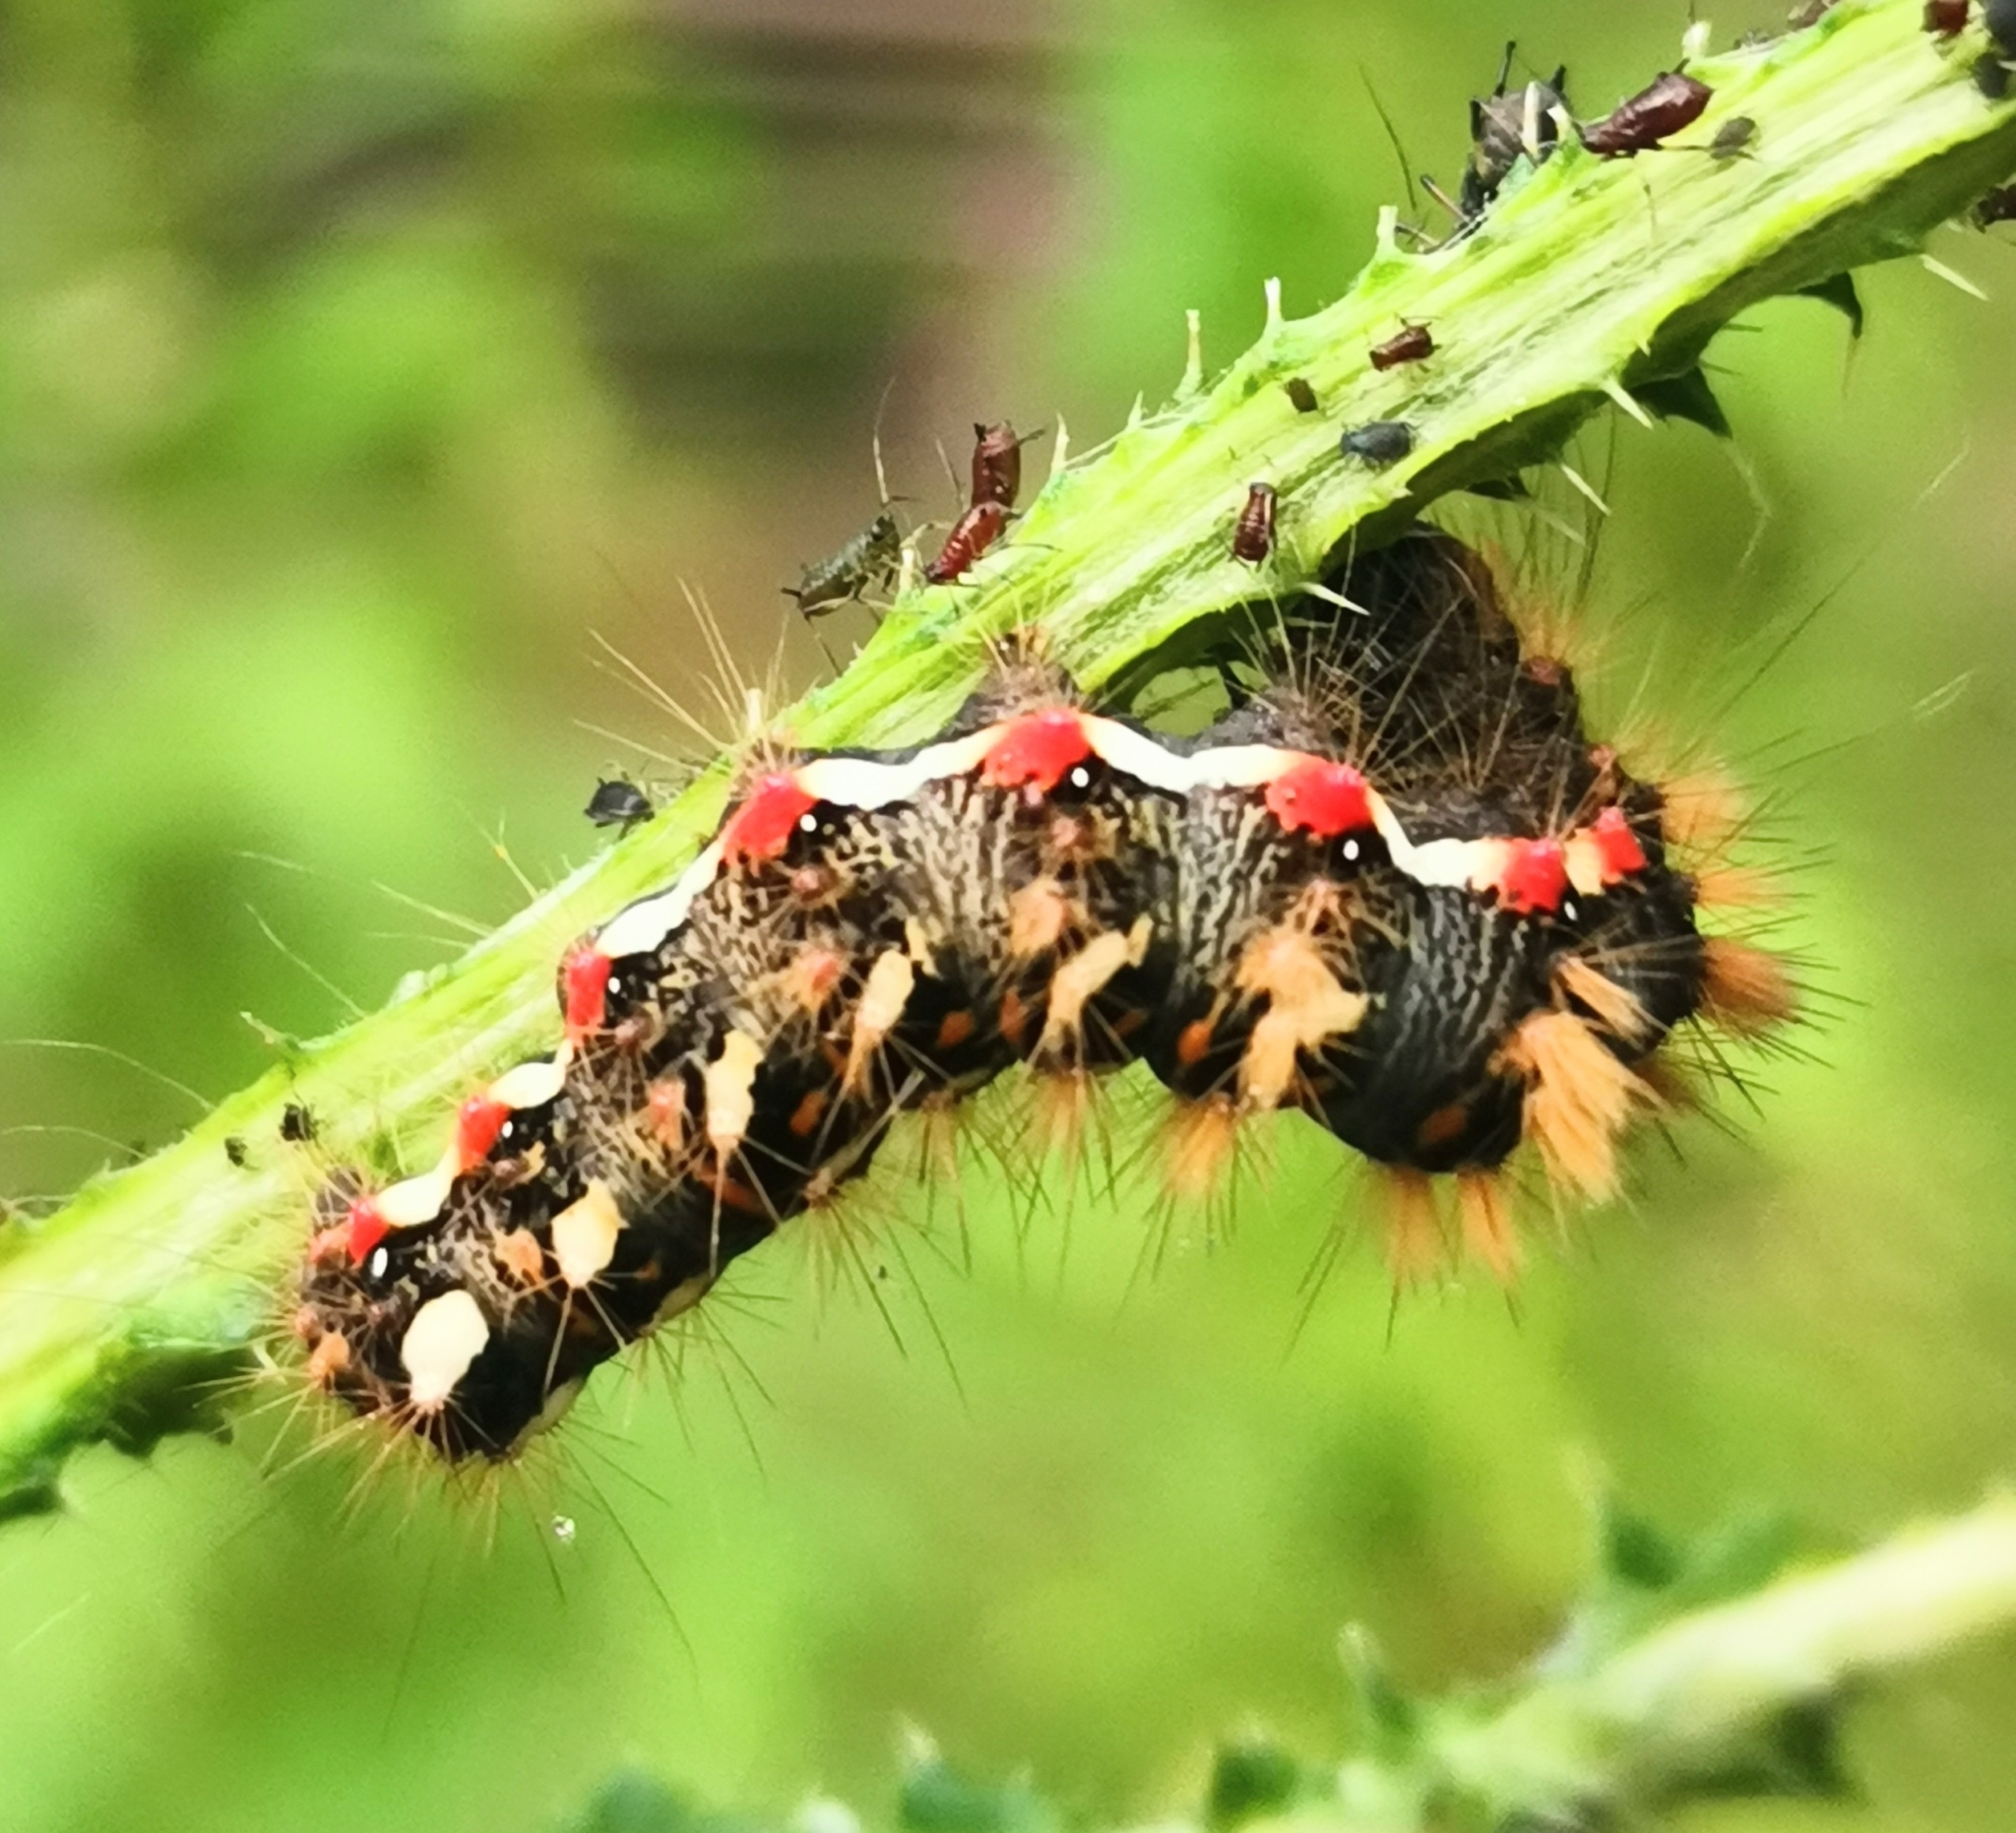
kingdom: Animalia
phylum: Arthropoda
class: Insecta
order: Lepidoptera
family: Noctuidae
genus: Acronicta
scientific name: Acronicta rumicis
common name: Knot grass
